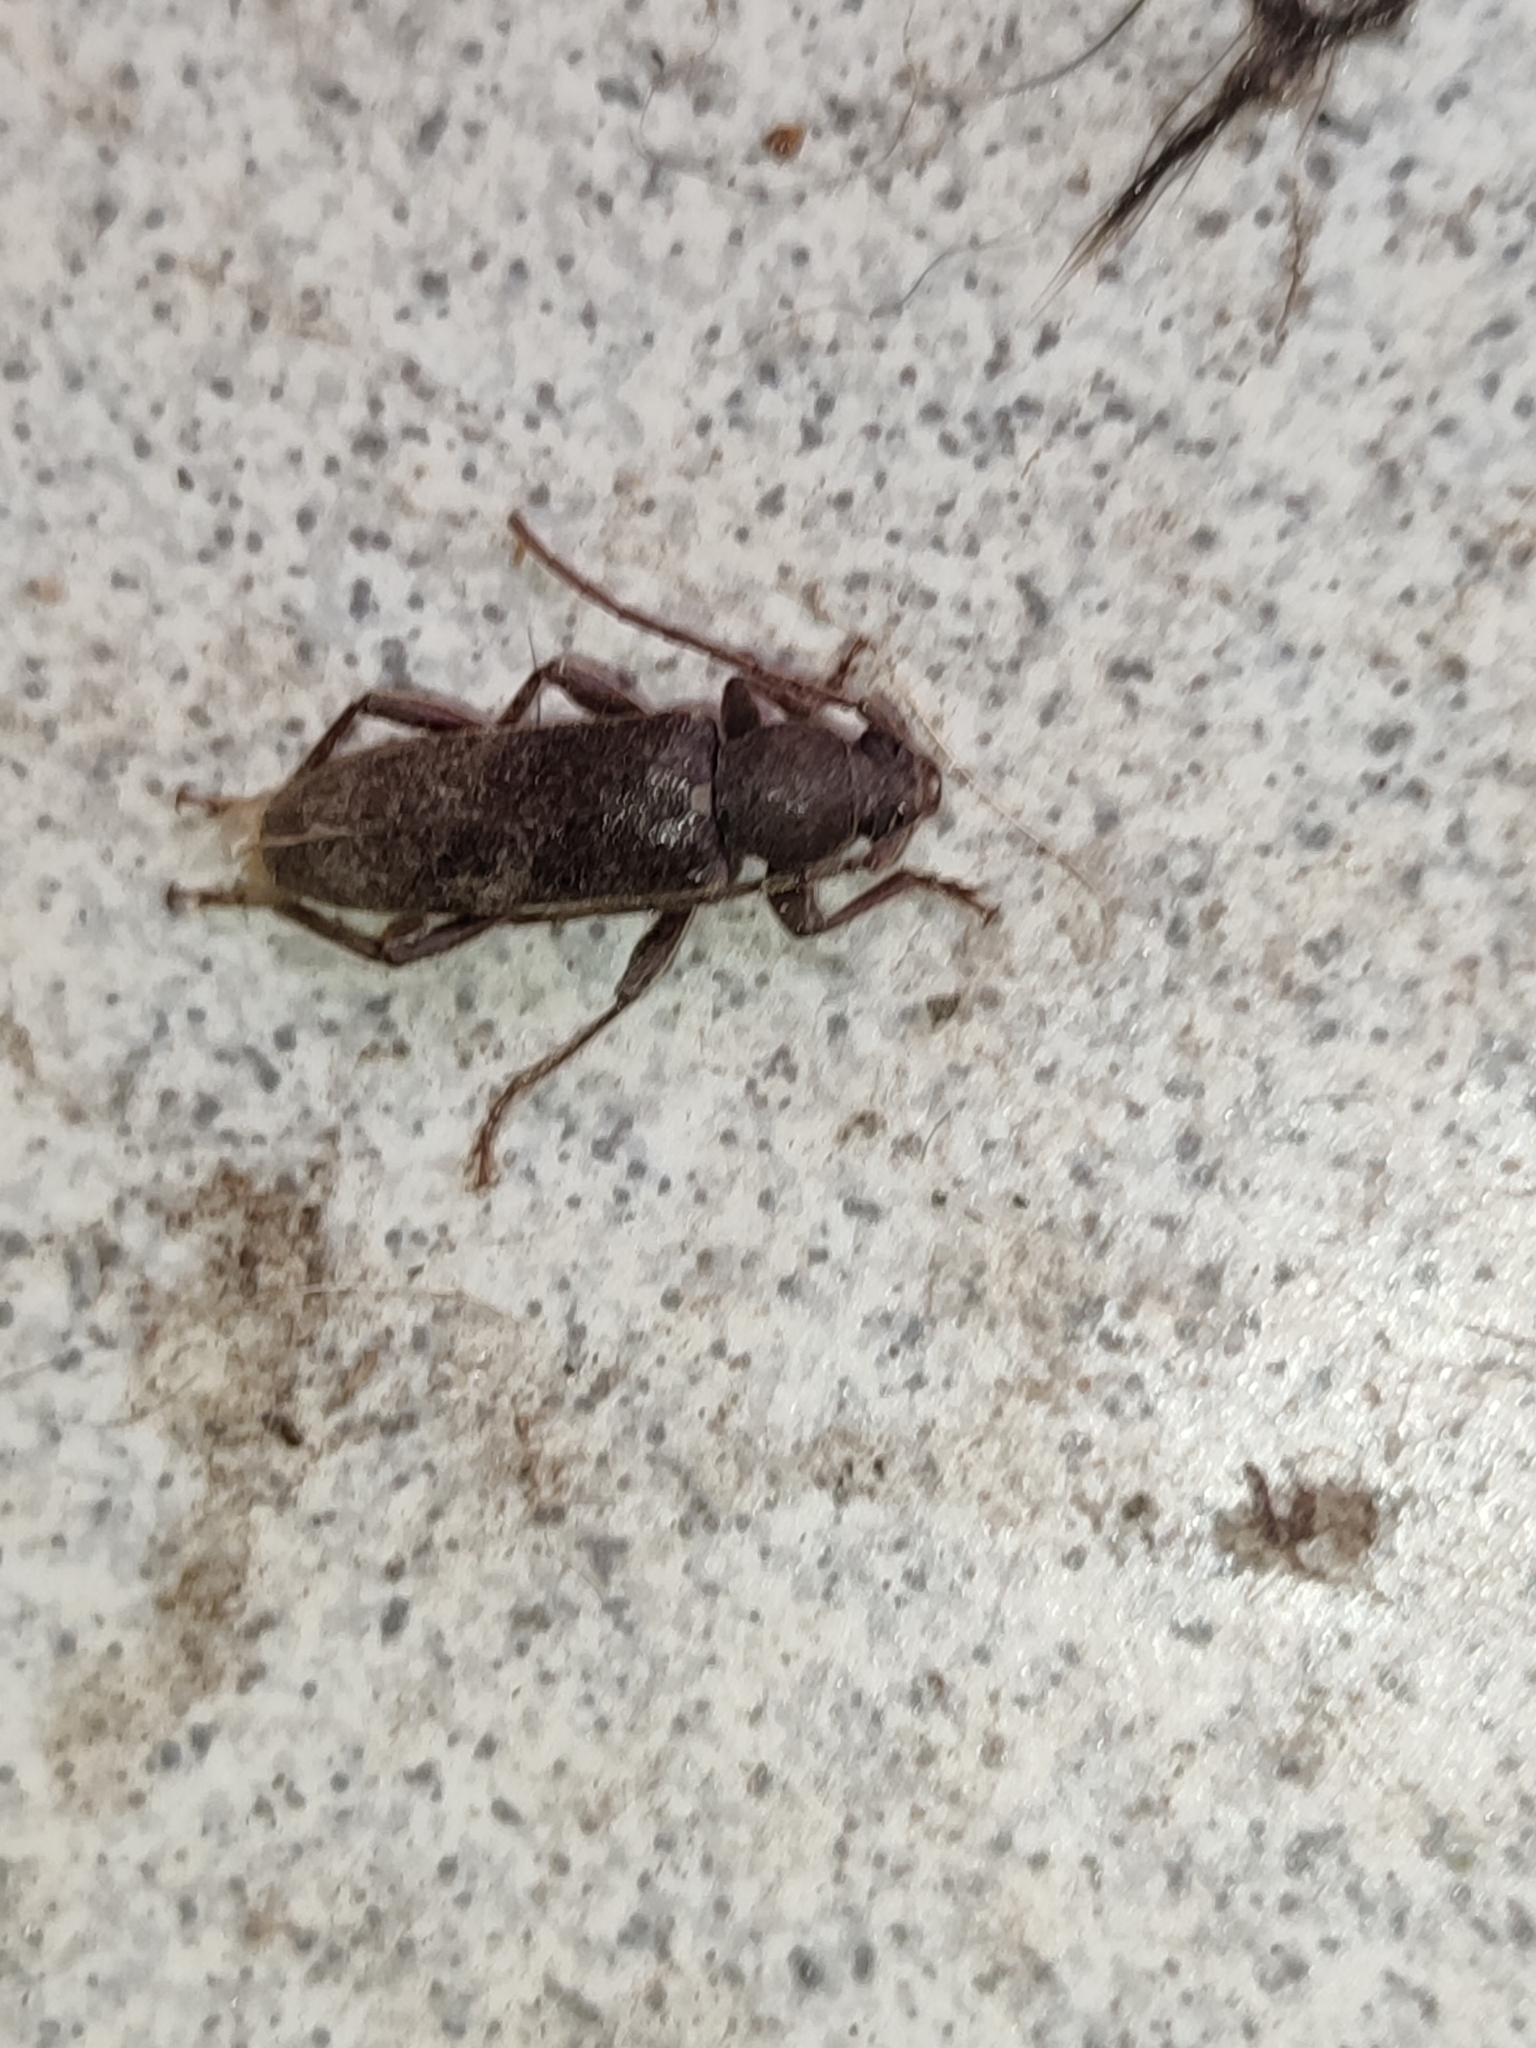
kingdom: Animalia
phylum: Arthropoda
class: Insecta
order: Coleoptera
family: Cerambycidae
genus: Trichoferus
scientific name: Trichoferus campestris
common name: Velvet long horned beetle
